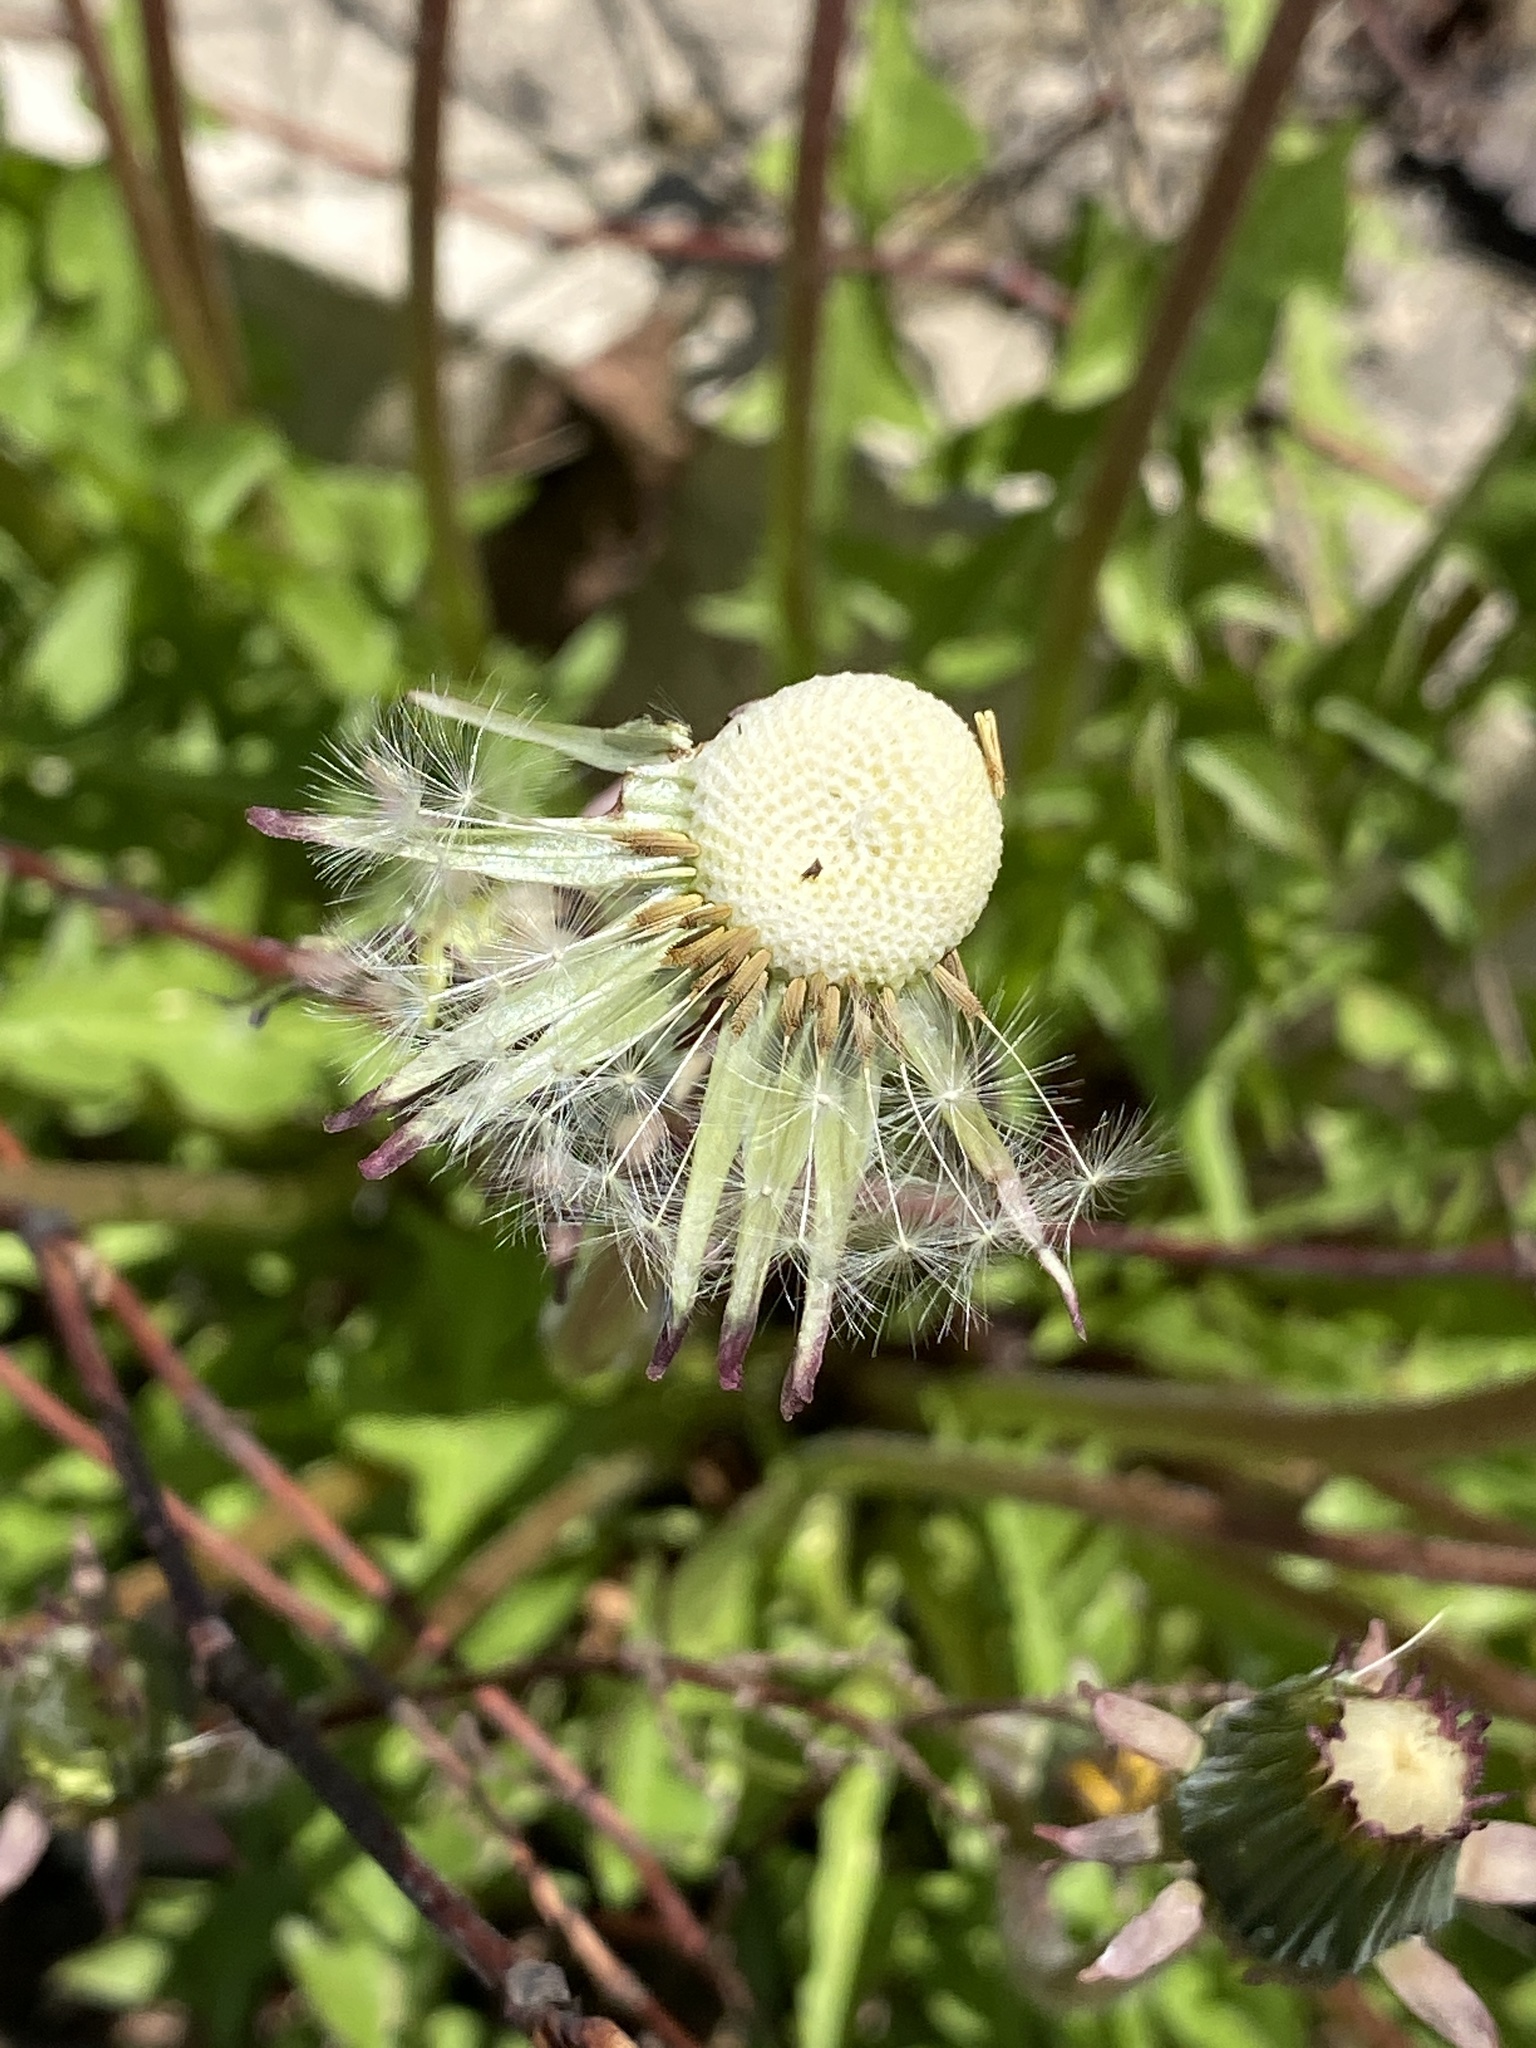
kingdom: Plantae
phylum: Tracheophyta
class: Magnoliopsida
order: Asterales
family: Asteraceae
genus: Taraxacum
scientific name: Taraxacum officinale
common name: Common dandelion
